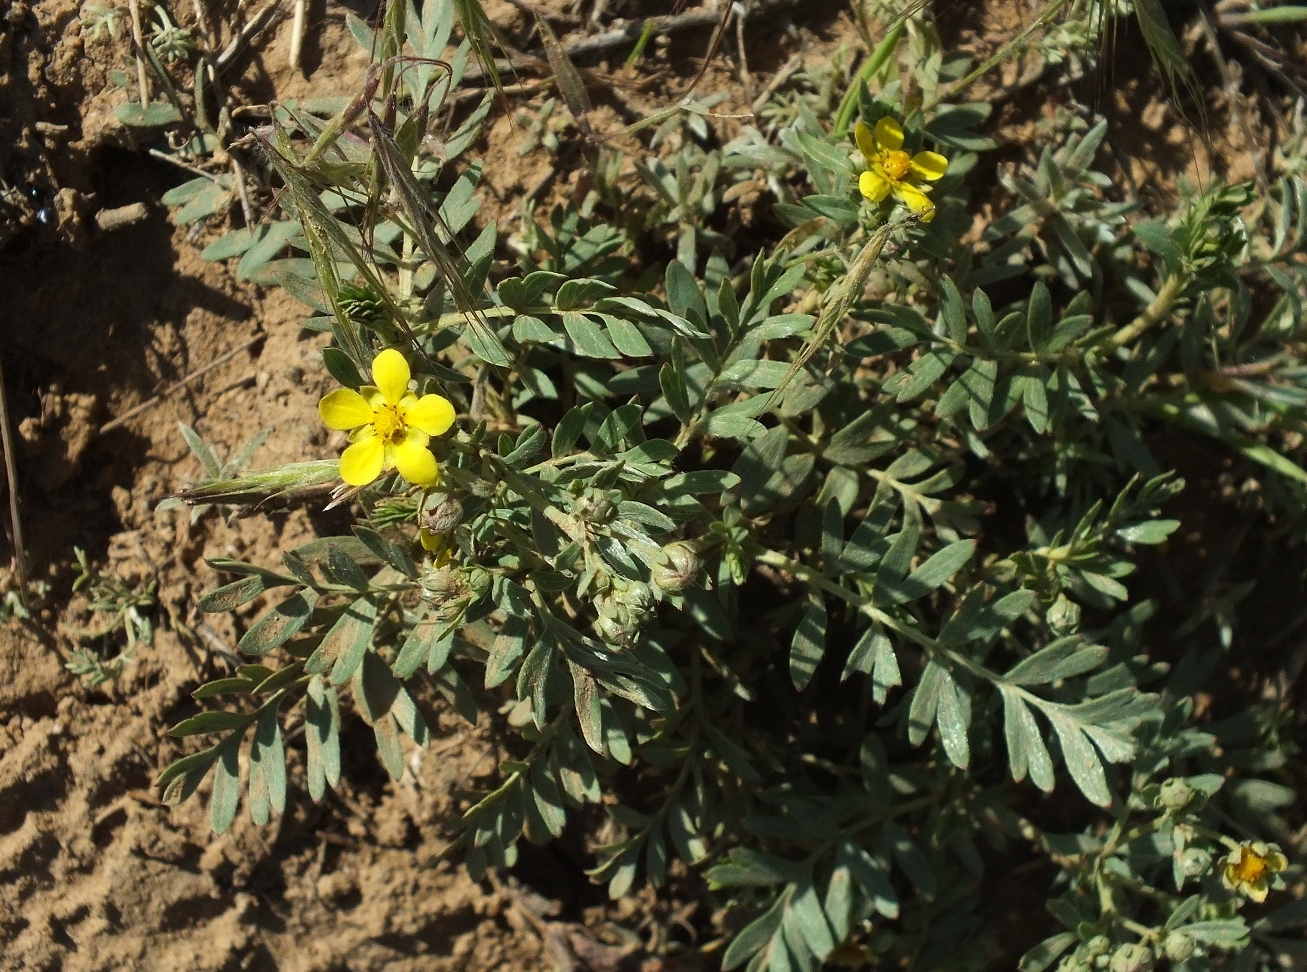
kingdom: Plantae
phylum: Tracheophyta
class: Magnoliopsida
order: Rosales
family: Rosaceae
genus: Sibbaldianthe
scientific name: Sibbaldianthe orientalis
